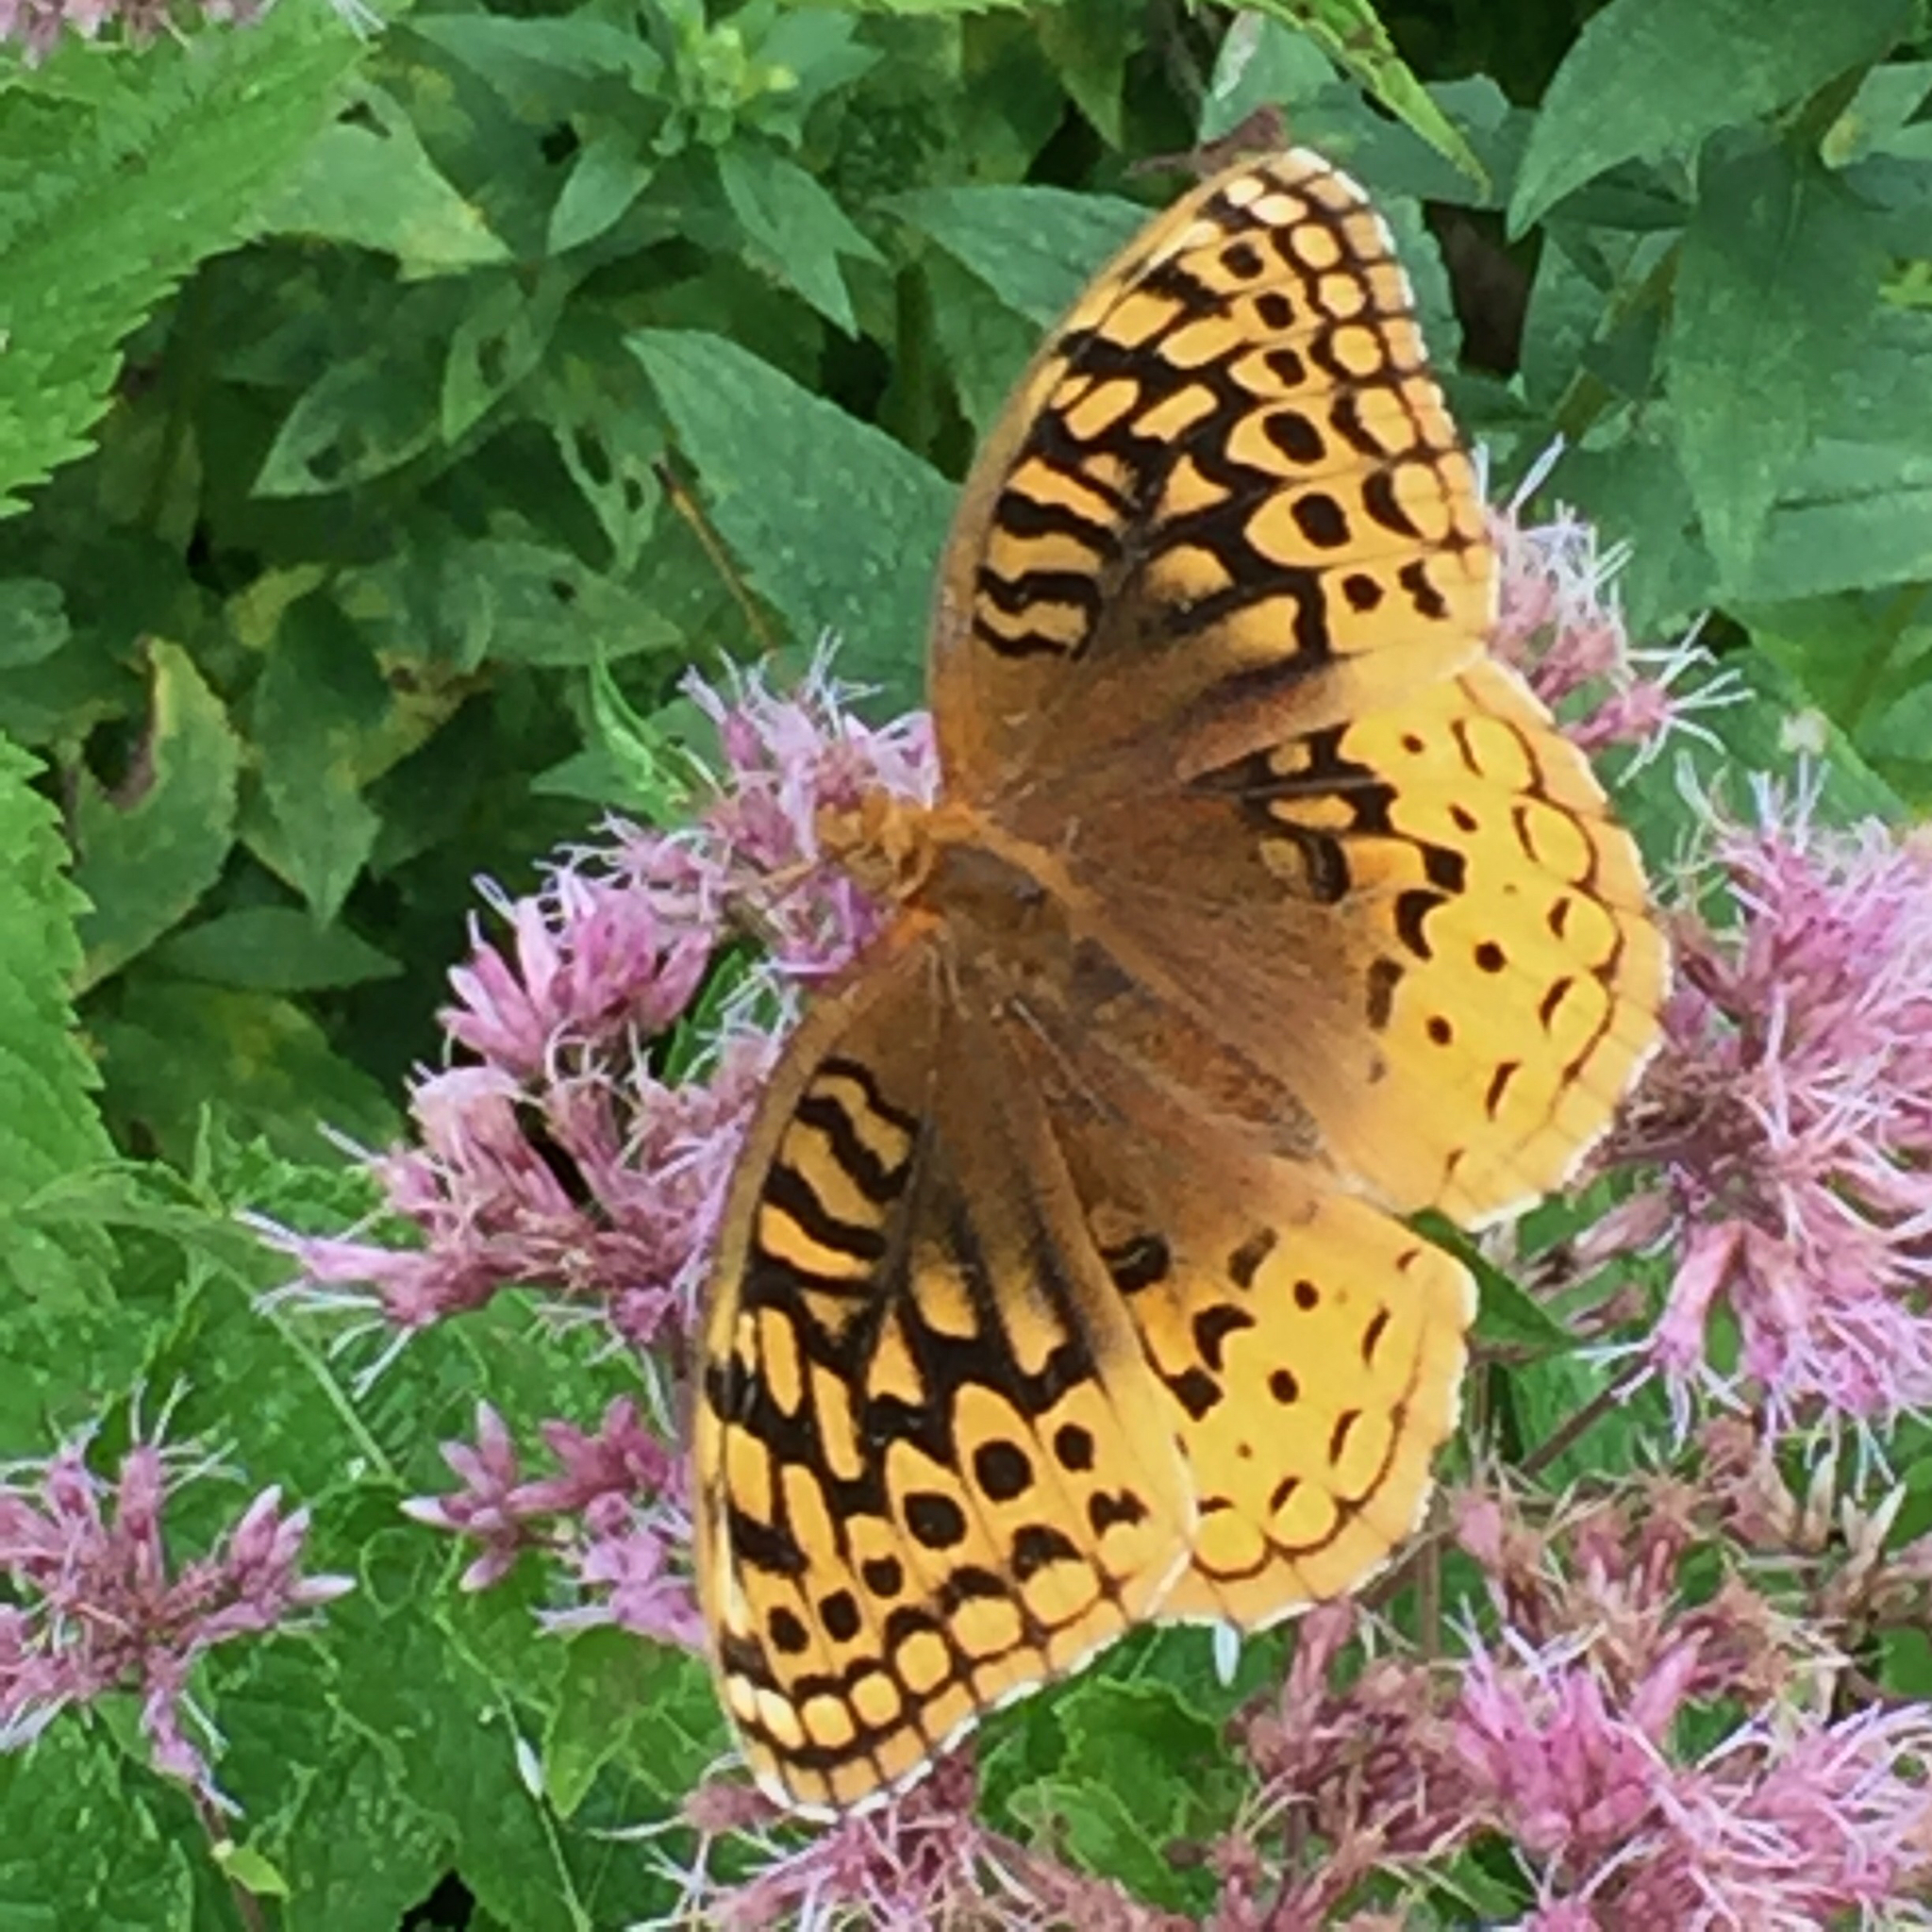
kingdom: Animalia
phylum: Arthropoda
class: Insecta
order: Lepidoptera
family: Nymphalidae
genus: Speyeria
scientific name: Speyeria cybele
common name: Great spangled fritillary
